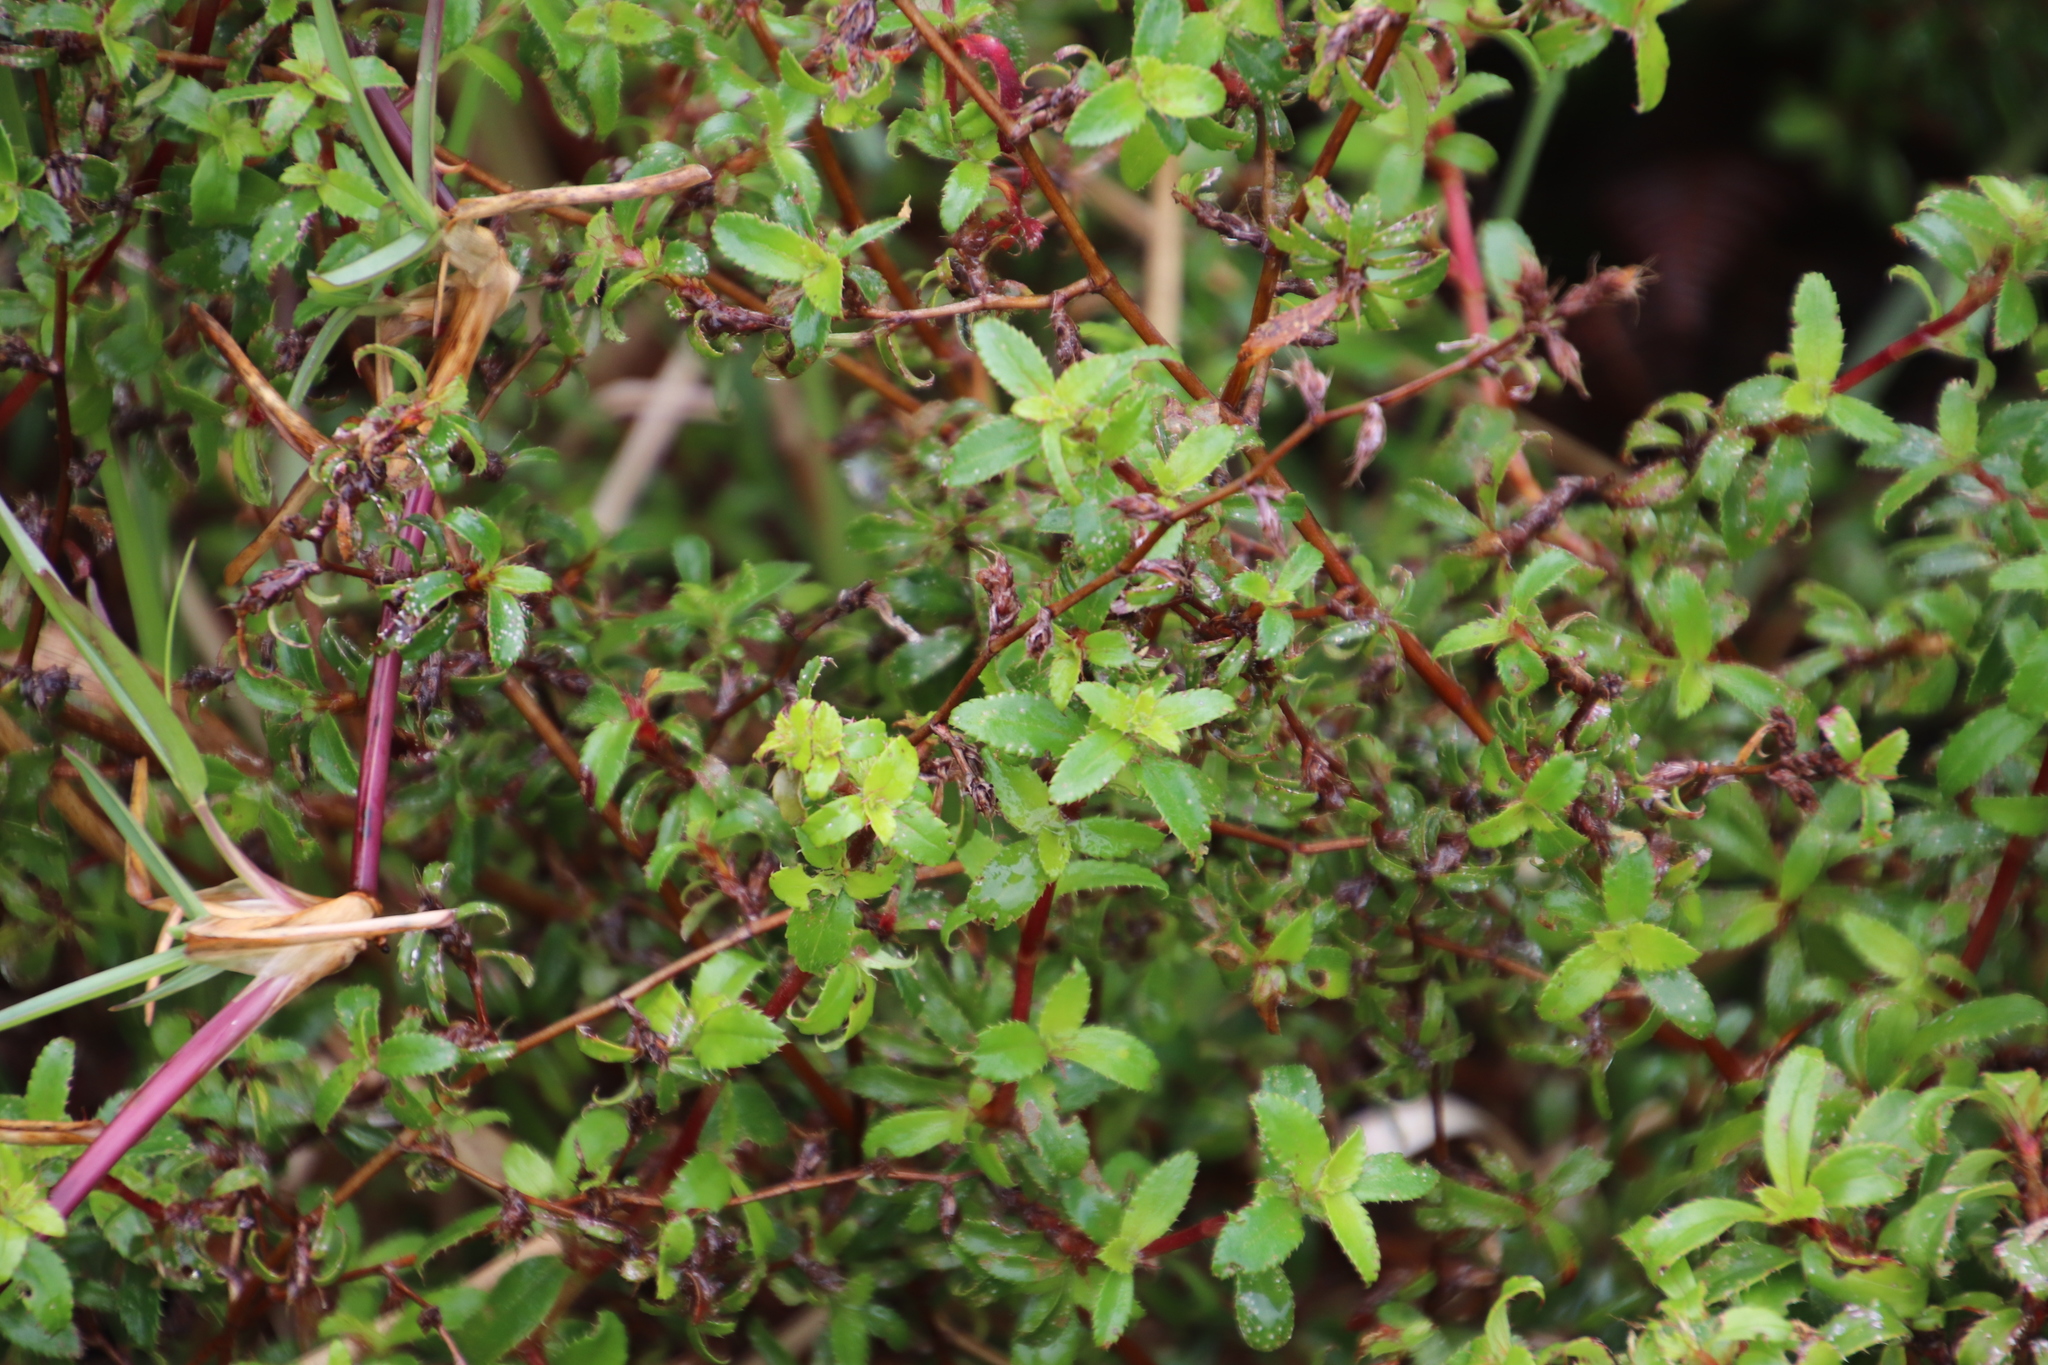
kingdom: Plantae
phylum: Tracheophyta
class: Magnoliopsida
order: Rosales
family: Rosaceae
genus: Cliffortia
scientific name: Cliffortia ferruginea
